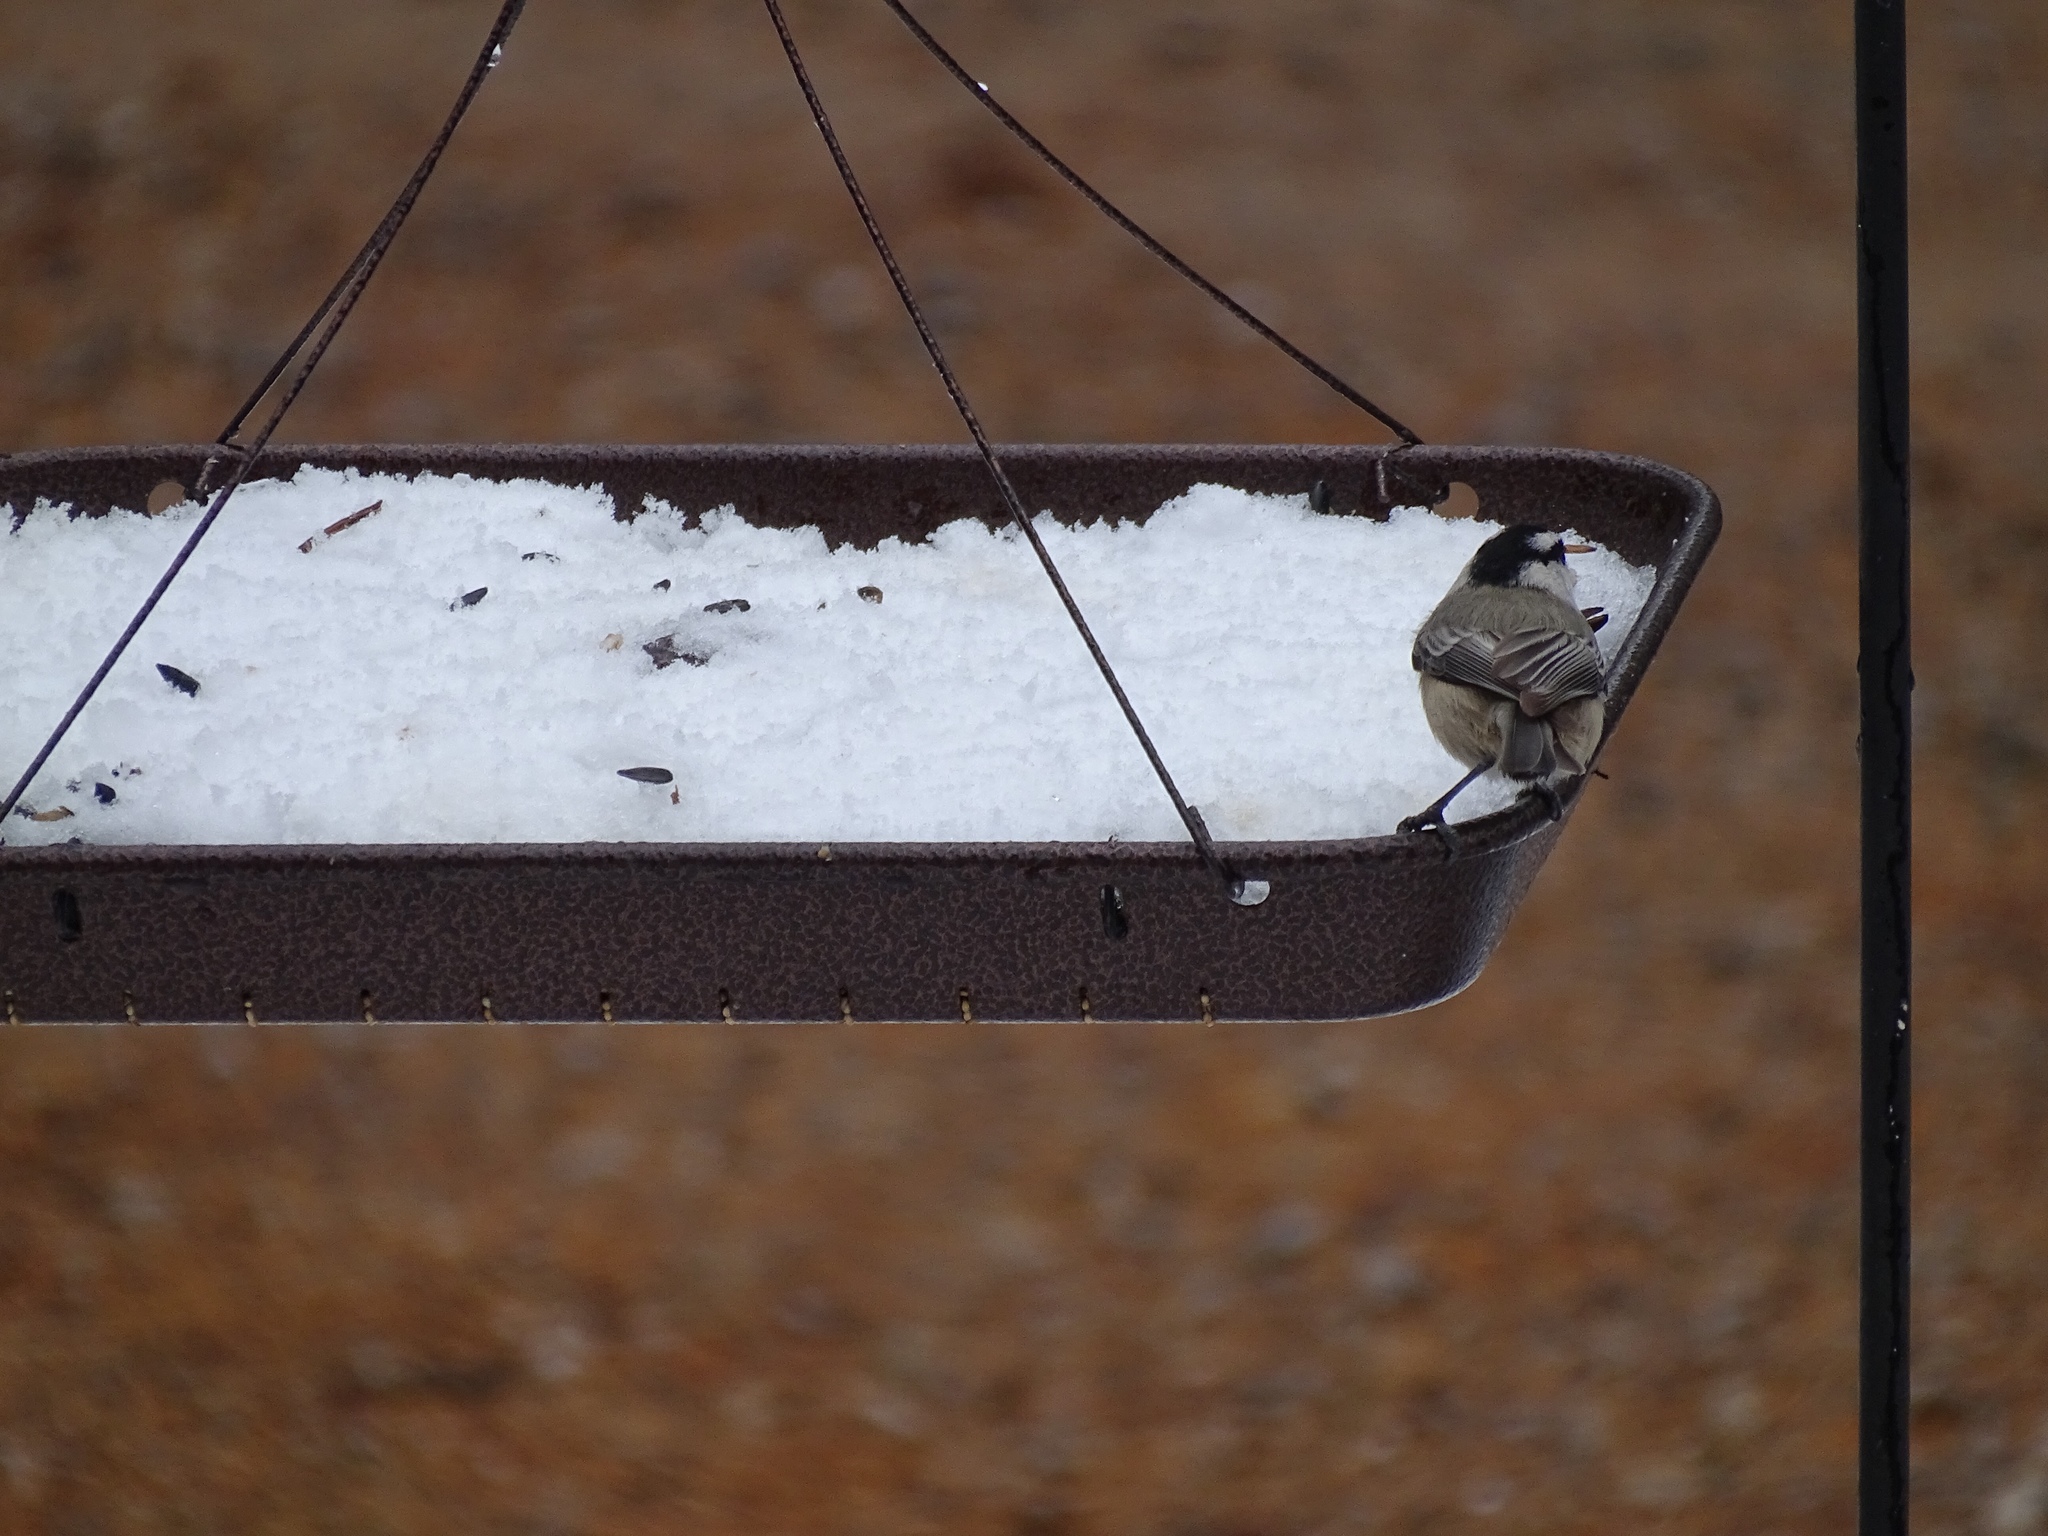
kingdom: Animalia
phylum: Chordata
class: Aves
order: Passeriformes
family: Paridae
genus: Poecile
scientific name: Poecile gambeli
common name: Mountain chickadee
